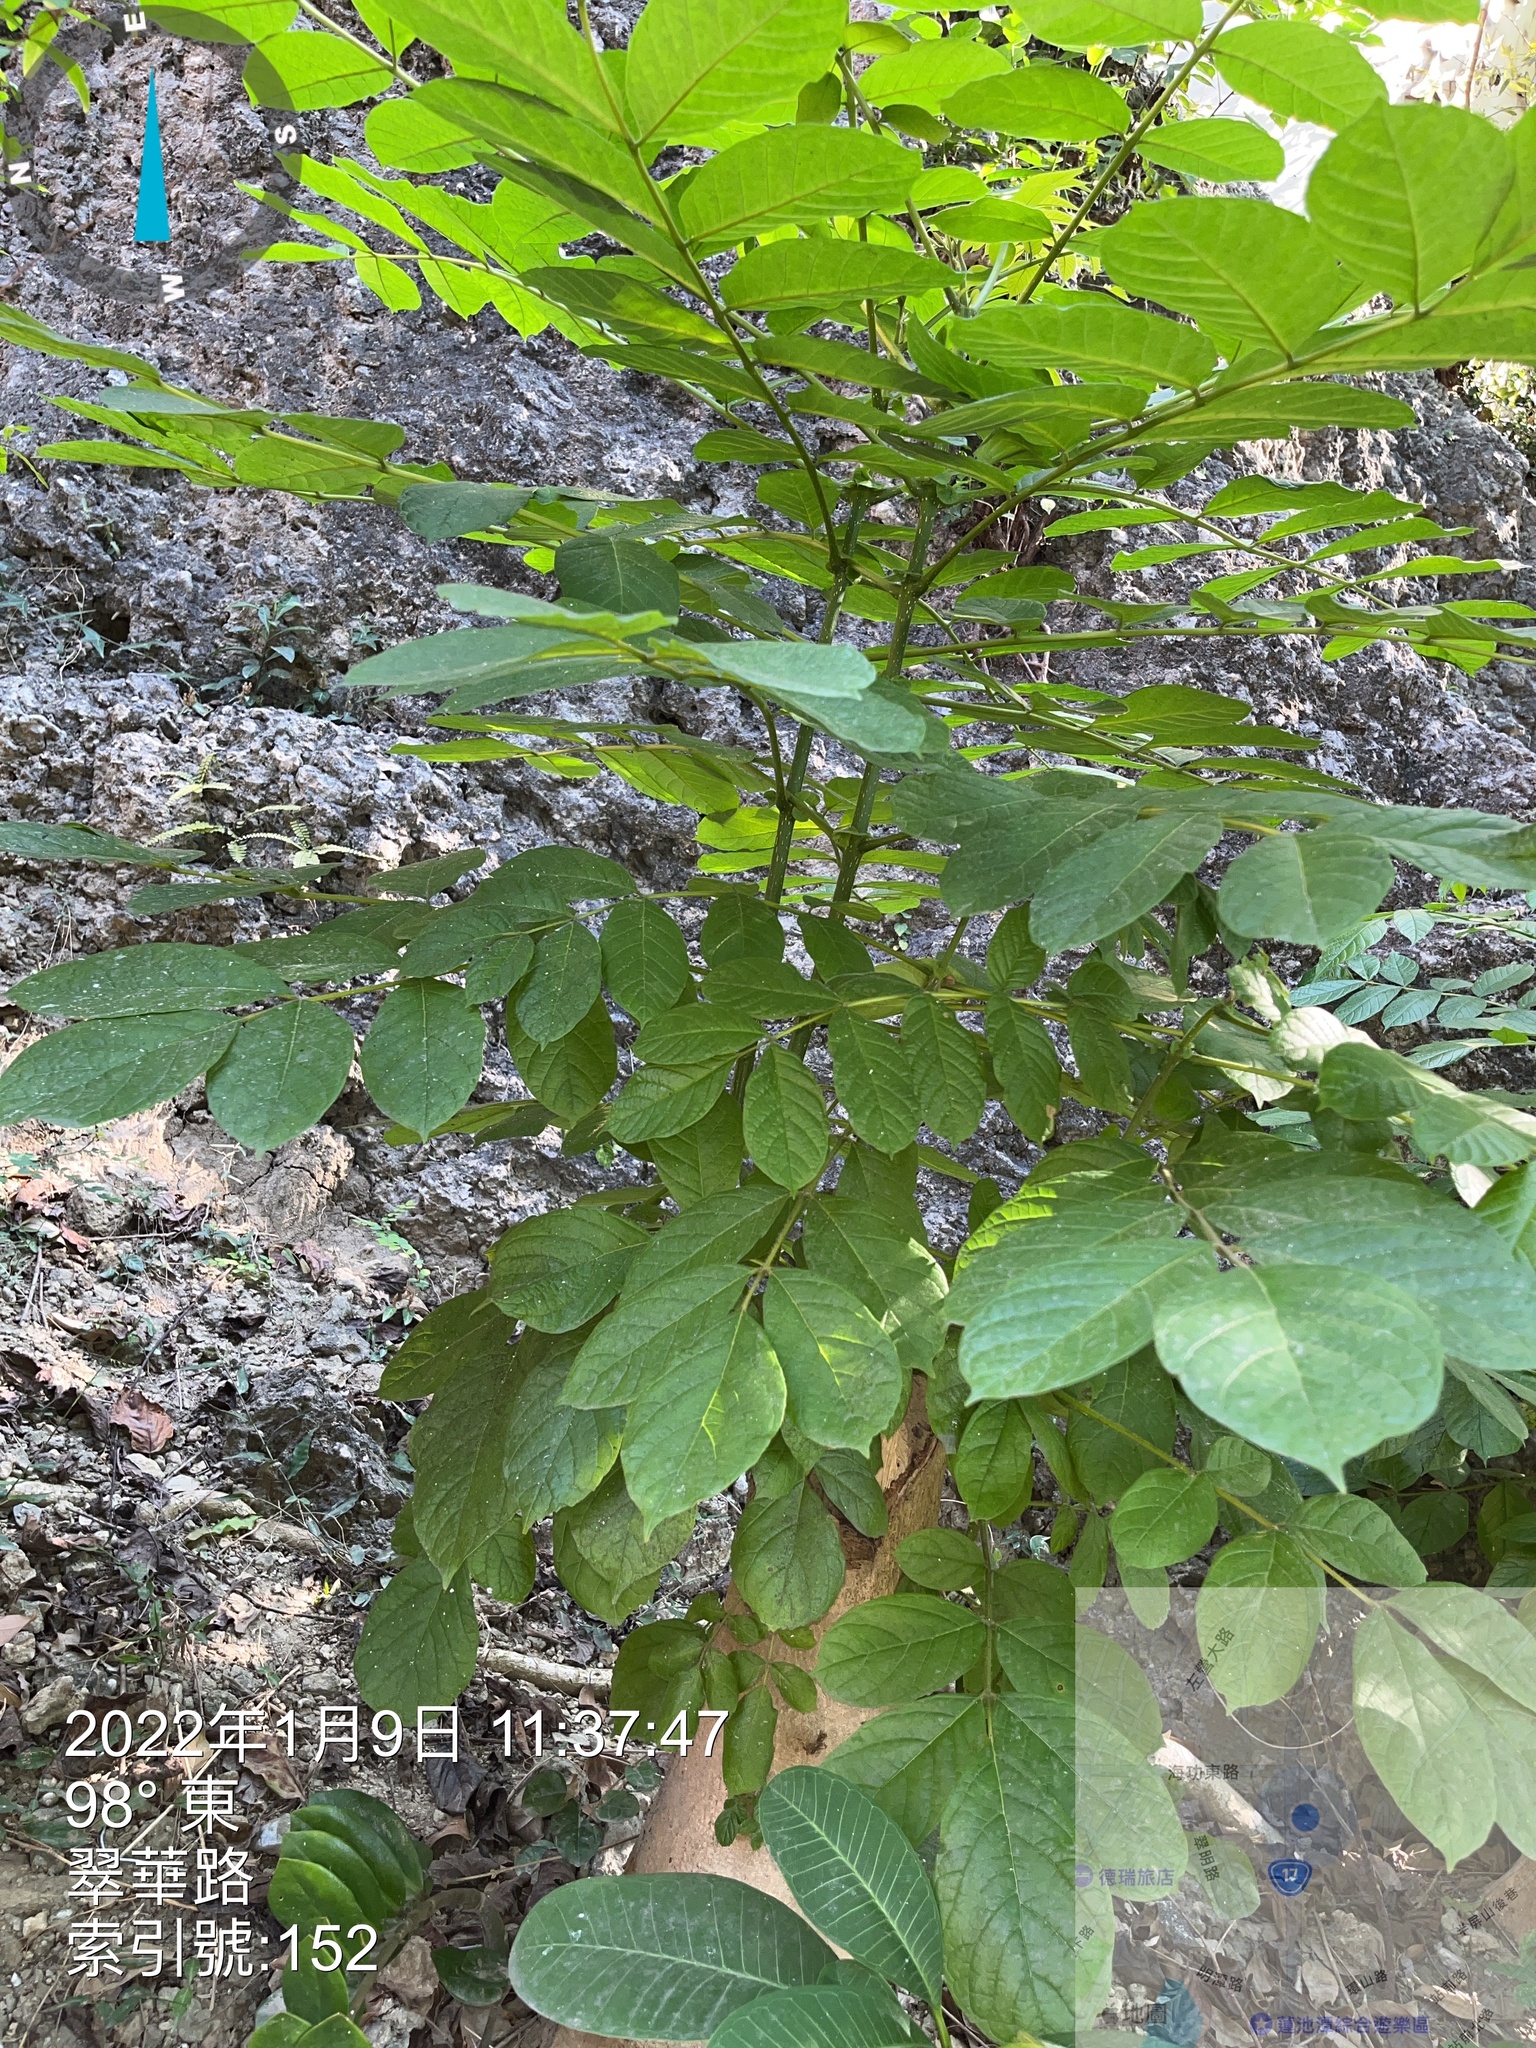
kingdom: Plantae
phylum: Tracheophyta
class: Magnoliopsida
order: Lamiales
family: Bignoniaceae
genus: Spathodea
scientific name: Spathodea campanulata
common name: African tuliptree
